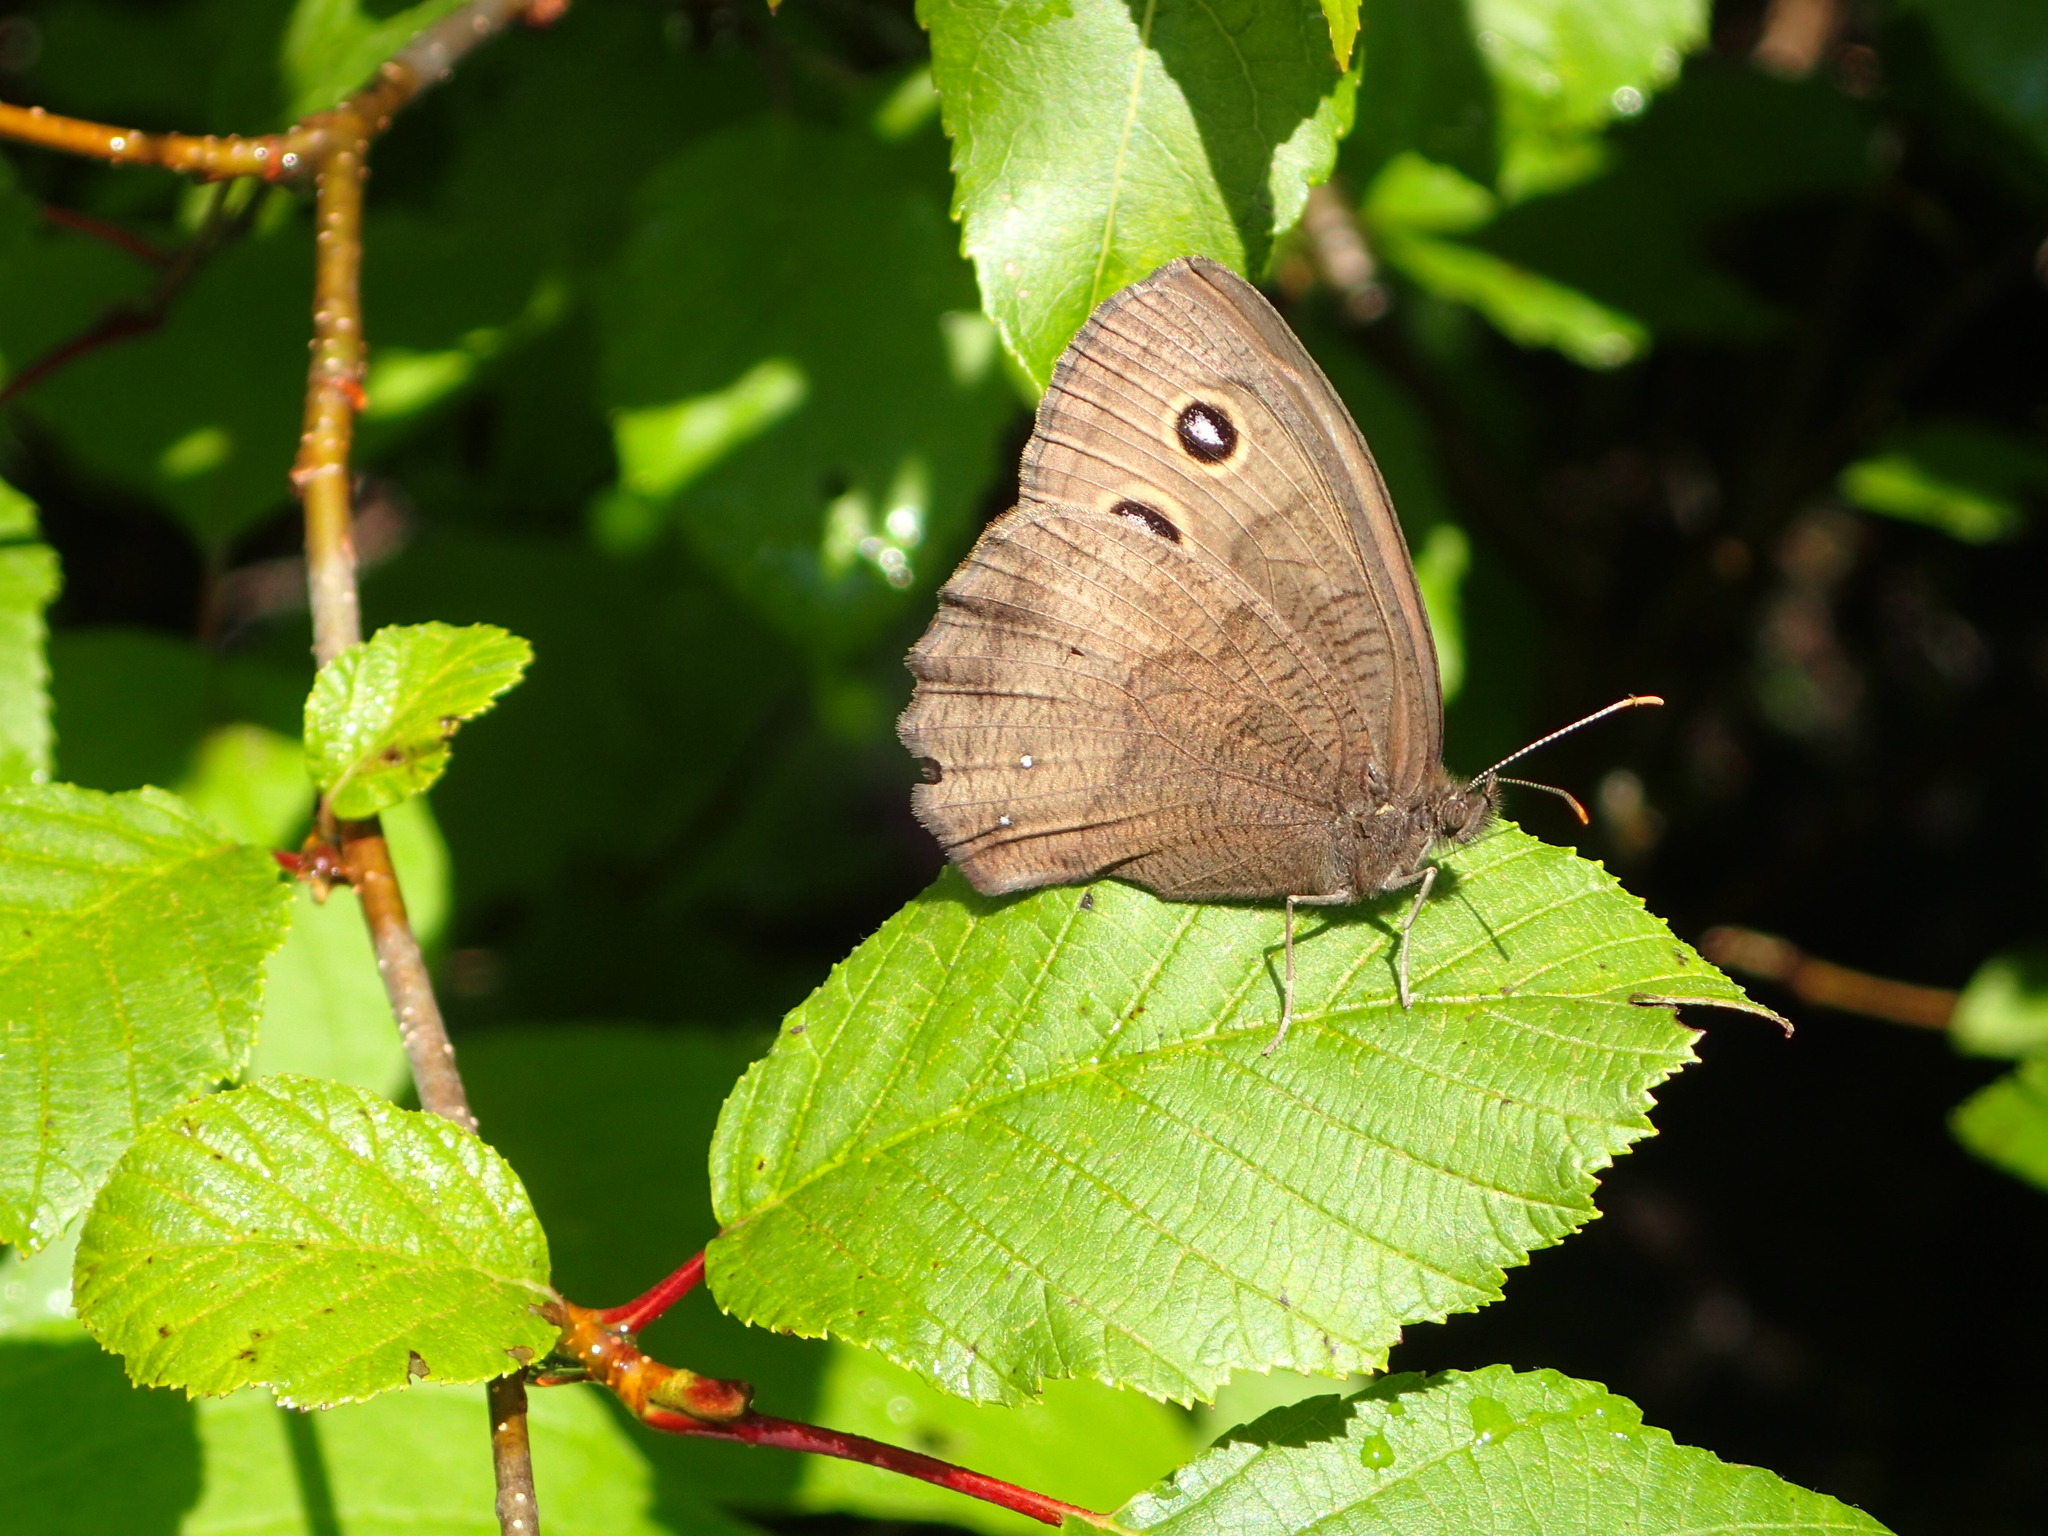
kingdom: Animalia
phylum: Arthropoda
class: Insecta
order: Lepidoptera
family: Nymphalidae
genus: Cercyonis
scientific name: Cercyonis pegala
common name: Common wood-nymph
